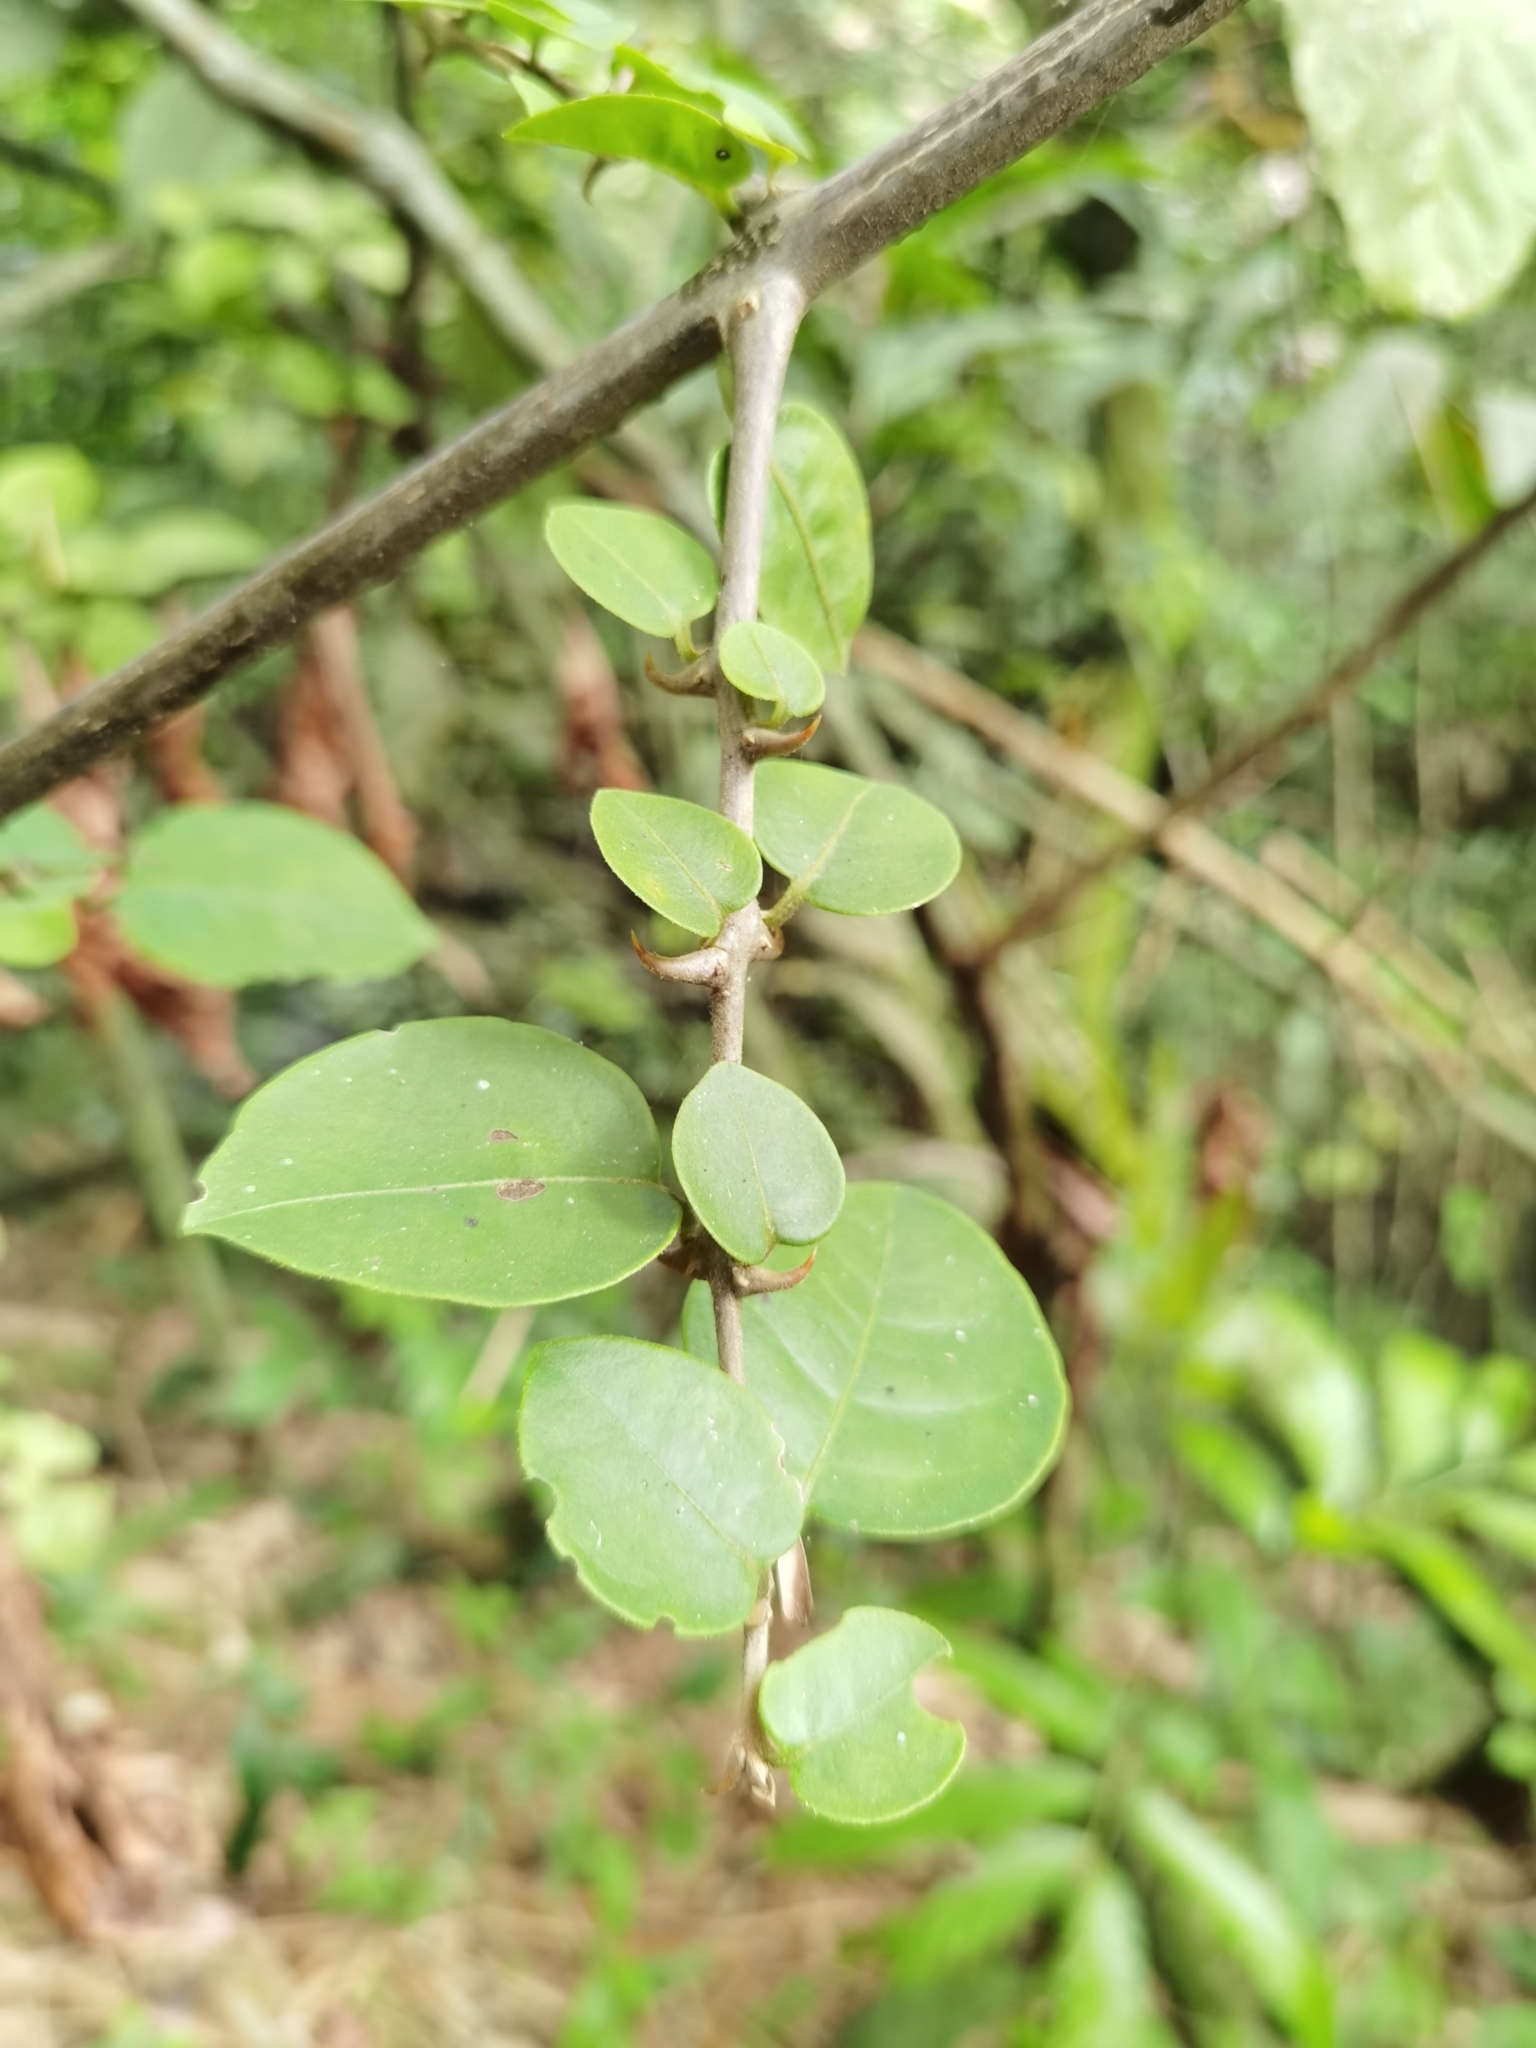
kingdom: Plantae
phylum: Tracheophyta
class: Magnoliopsida
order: Caryophyllales
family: Nyctaginaceae
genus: Pisonia
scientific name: Pisonia aculeata
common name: Cockspur vine
